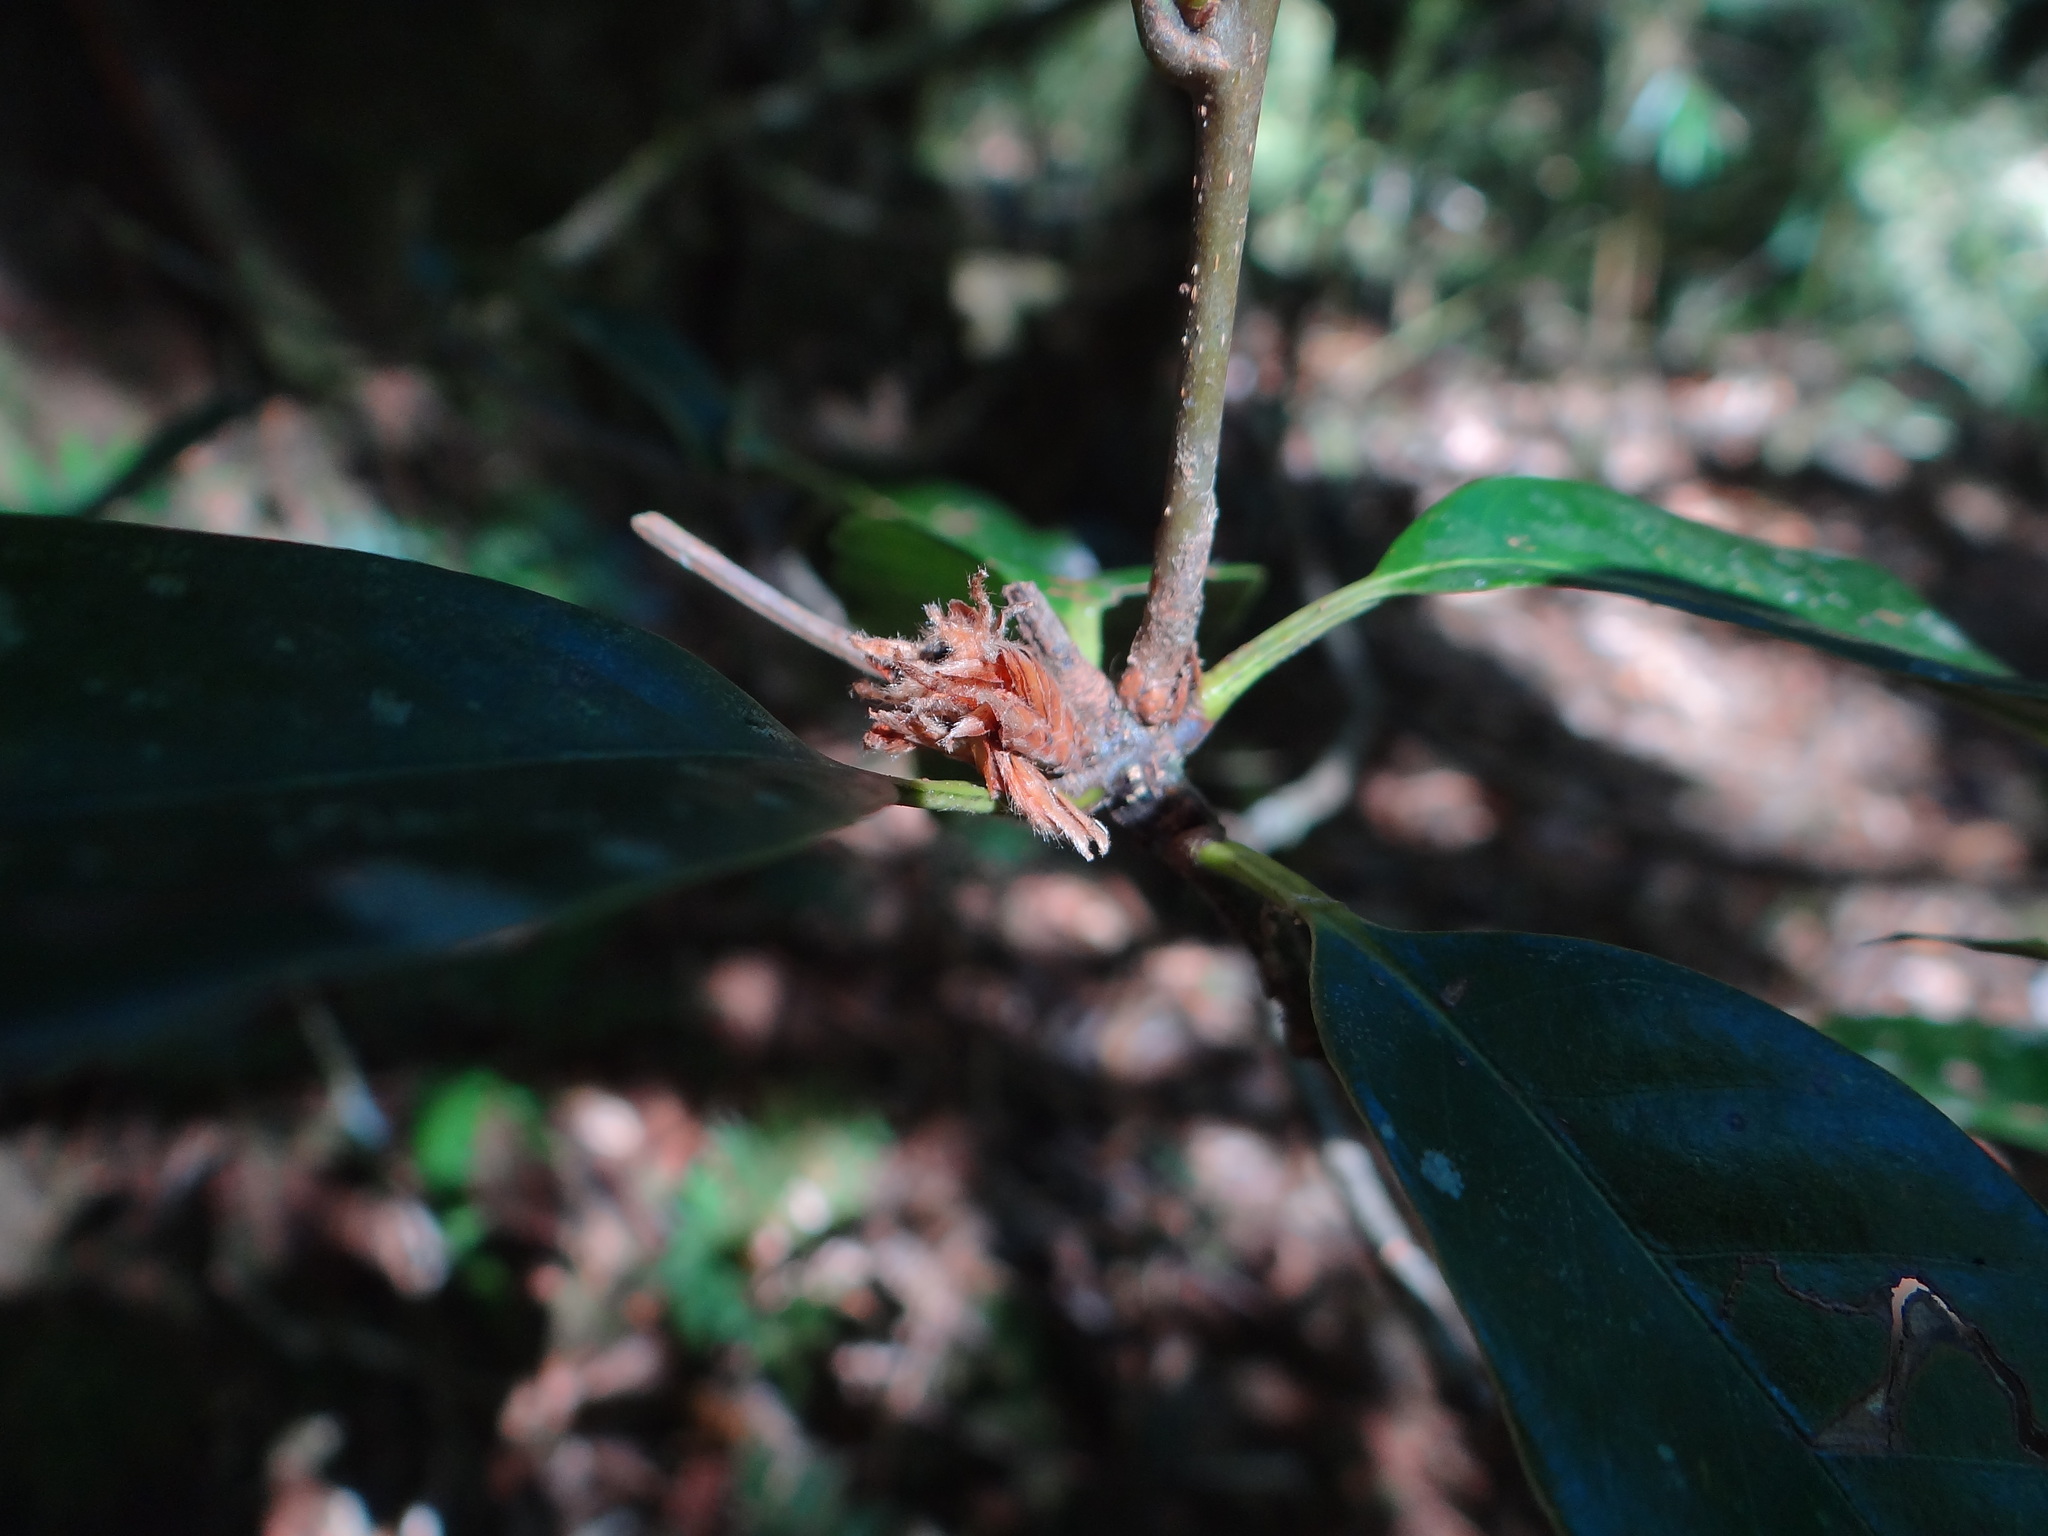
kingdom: Plantae
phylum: Tracheophyta
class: Magnoliopsida
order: Fagales
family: Fagaceae
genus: Quercus
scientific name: Quercus sessilifolia
